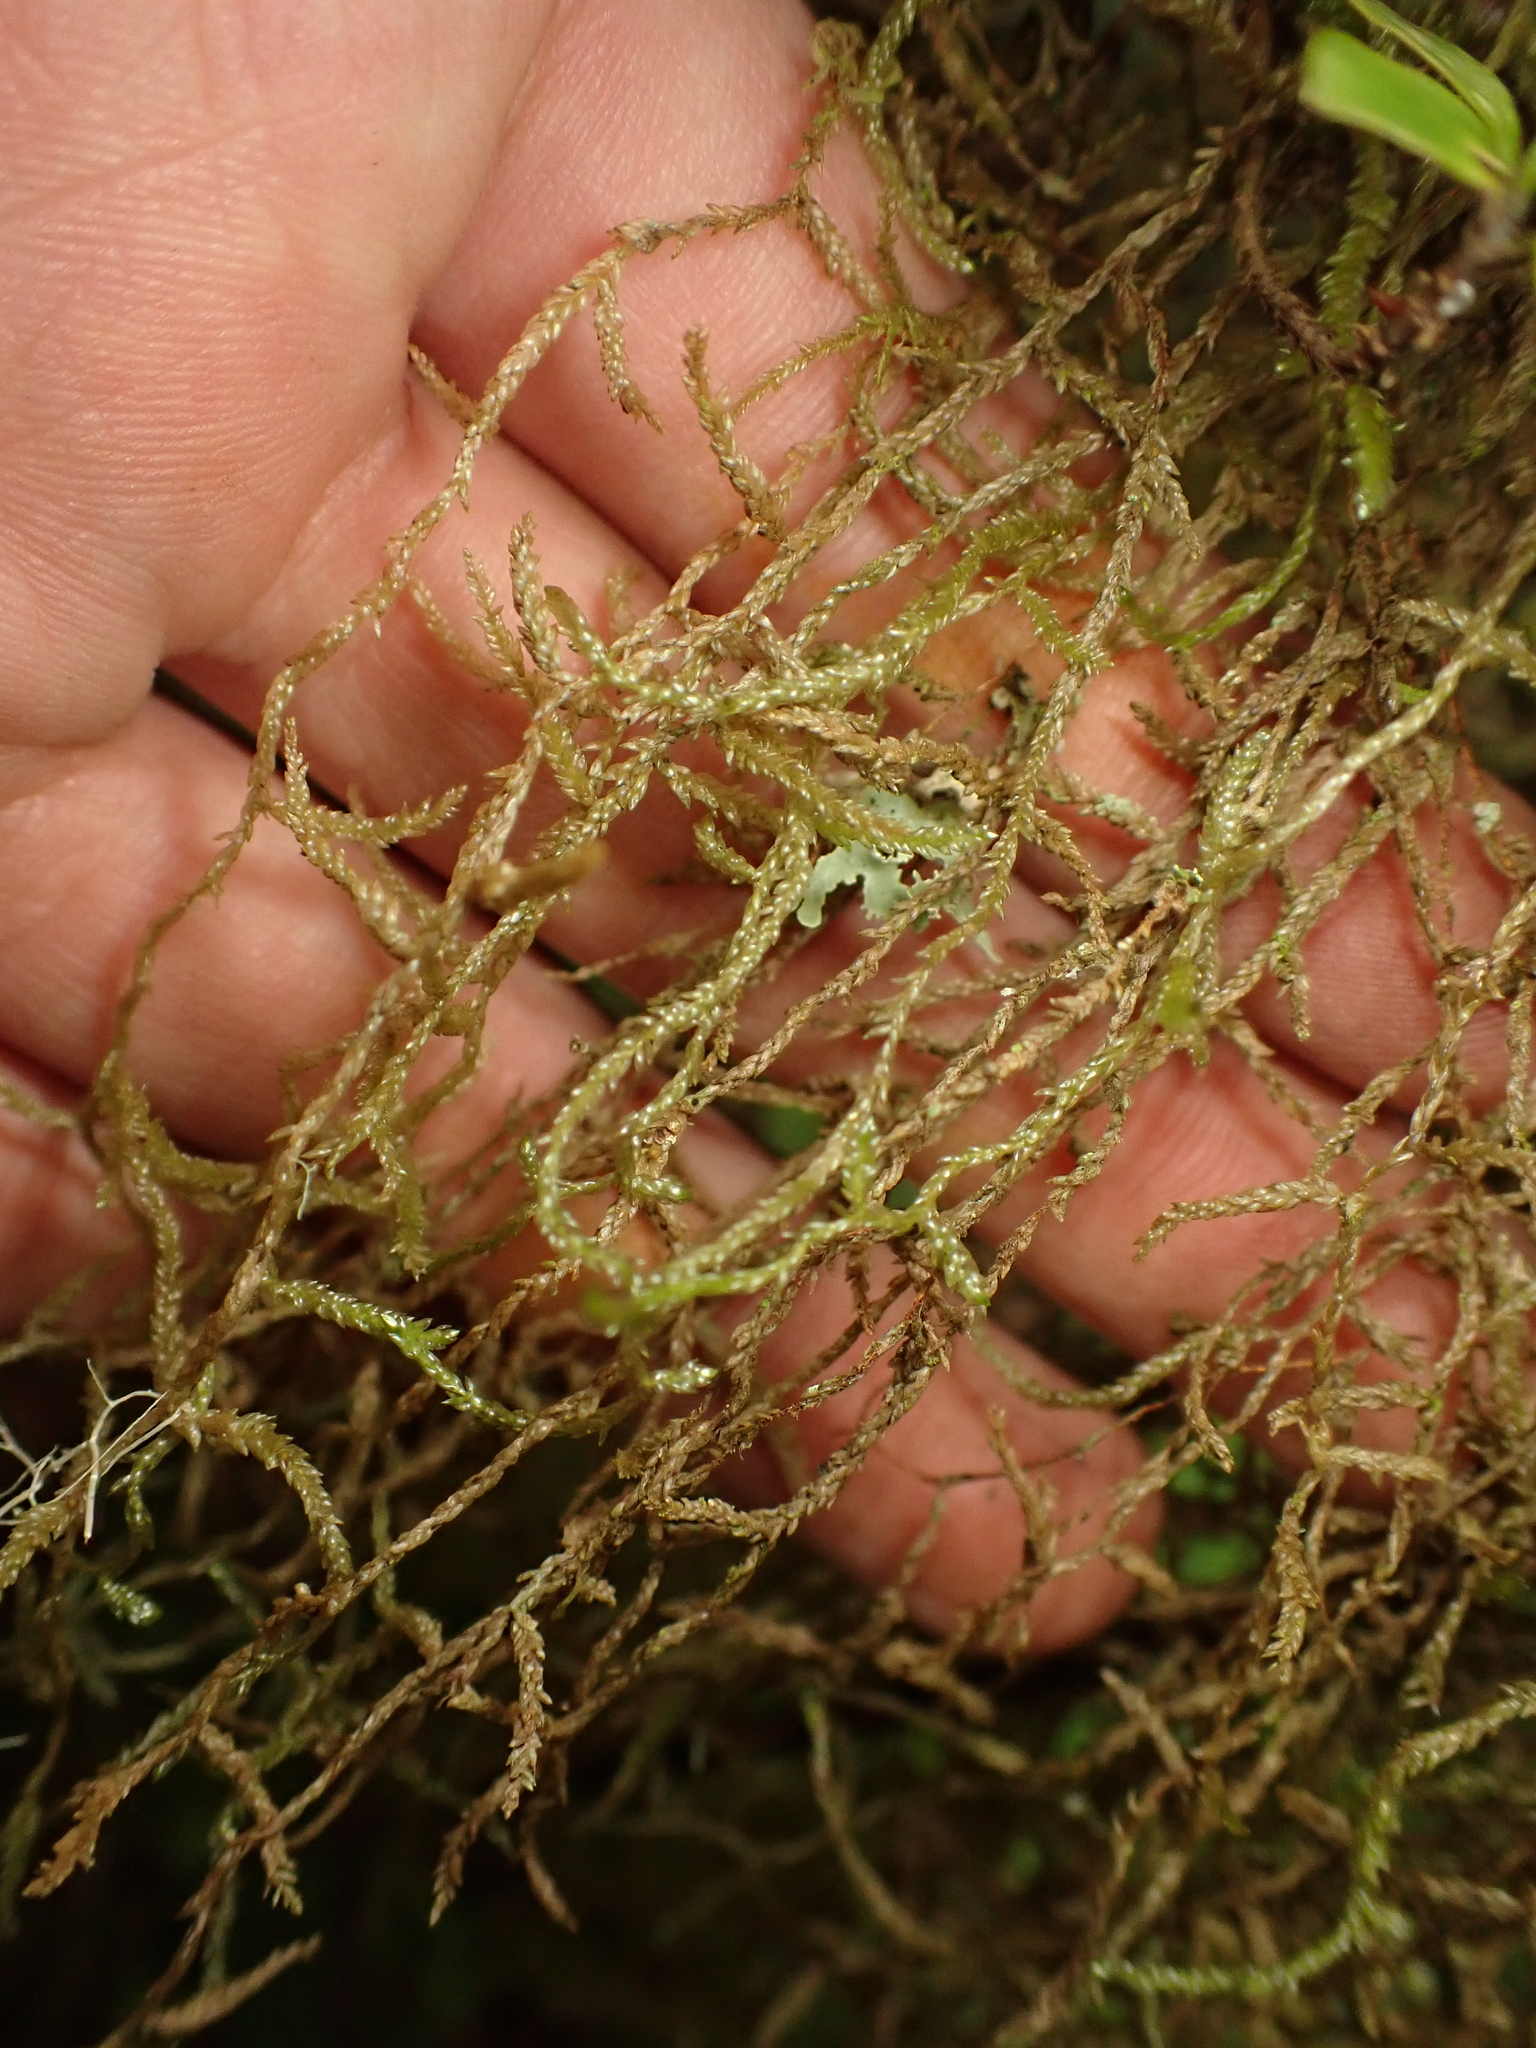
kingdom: Plantae
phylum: Bryophyta
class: Bryopsida
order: Hypnales
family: Lembophyllaceae
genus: Weymouthia
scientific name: Weymouthia mollis
